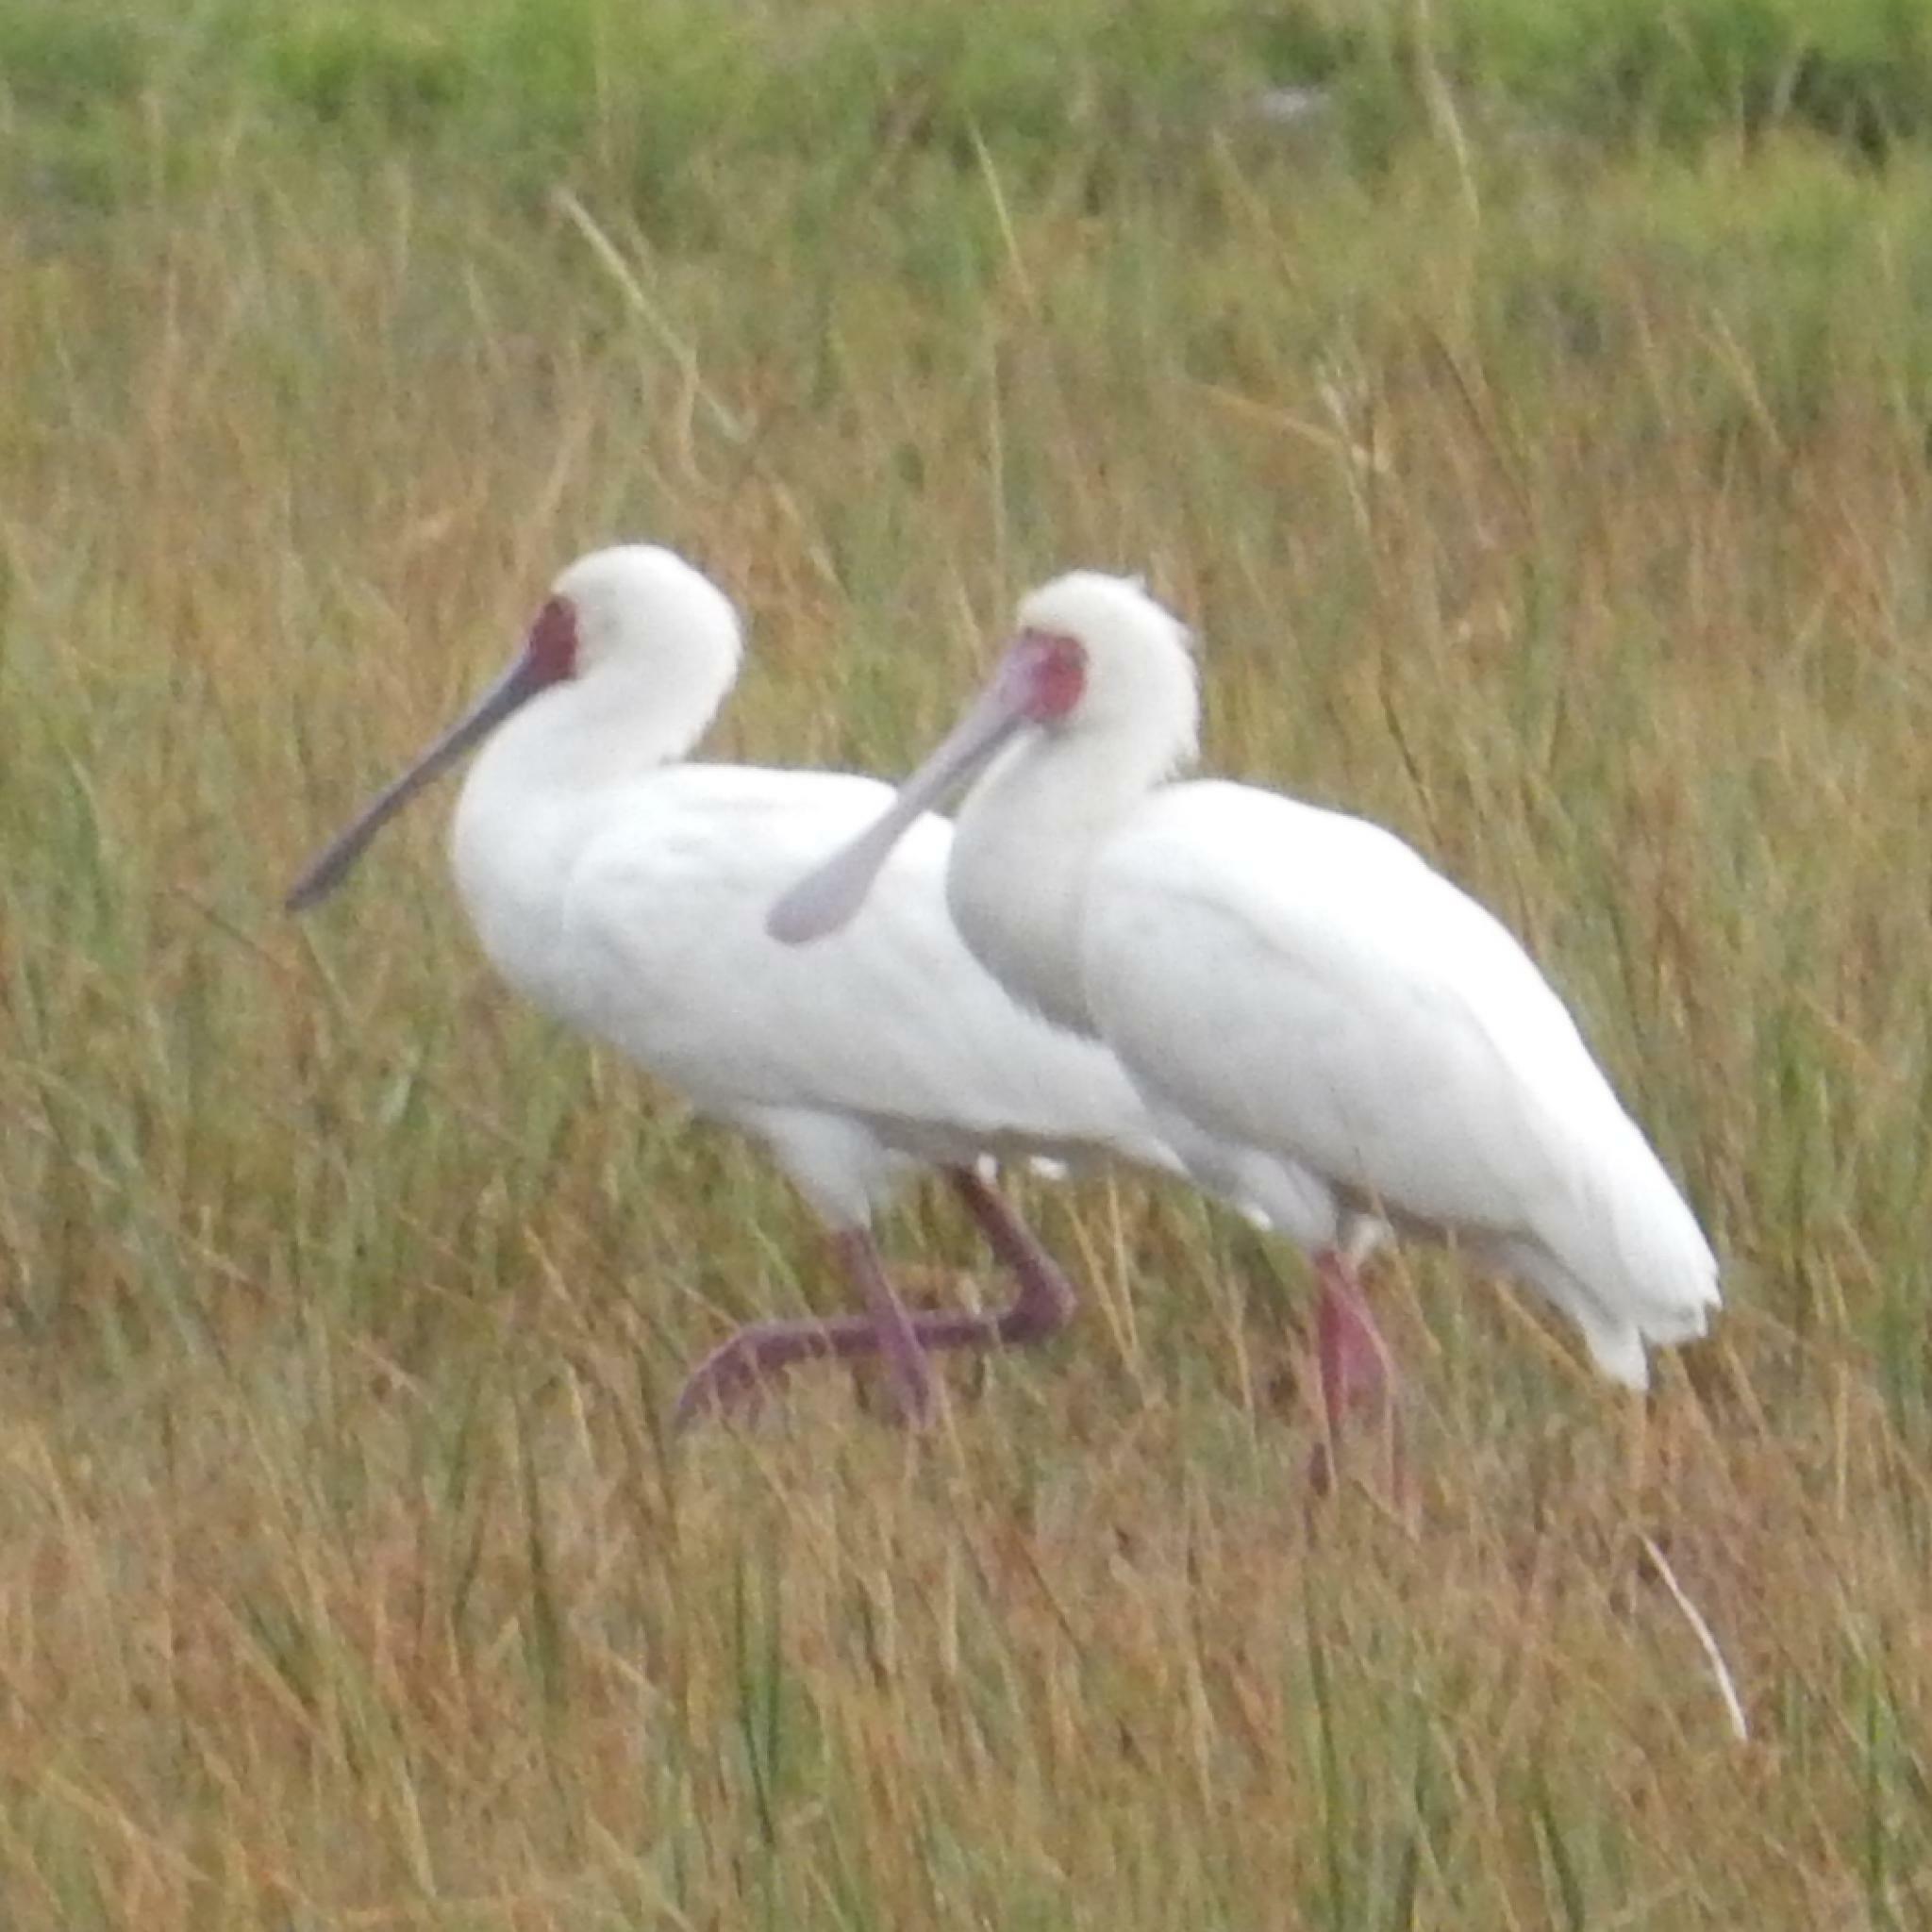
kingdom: Animalia
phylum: Chordata
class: Aves
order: Pelecaniformes
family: Threskiornithidae
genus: Platalea
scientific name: Platalea alba
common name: African spoonbill
